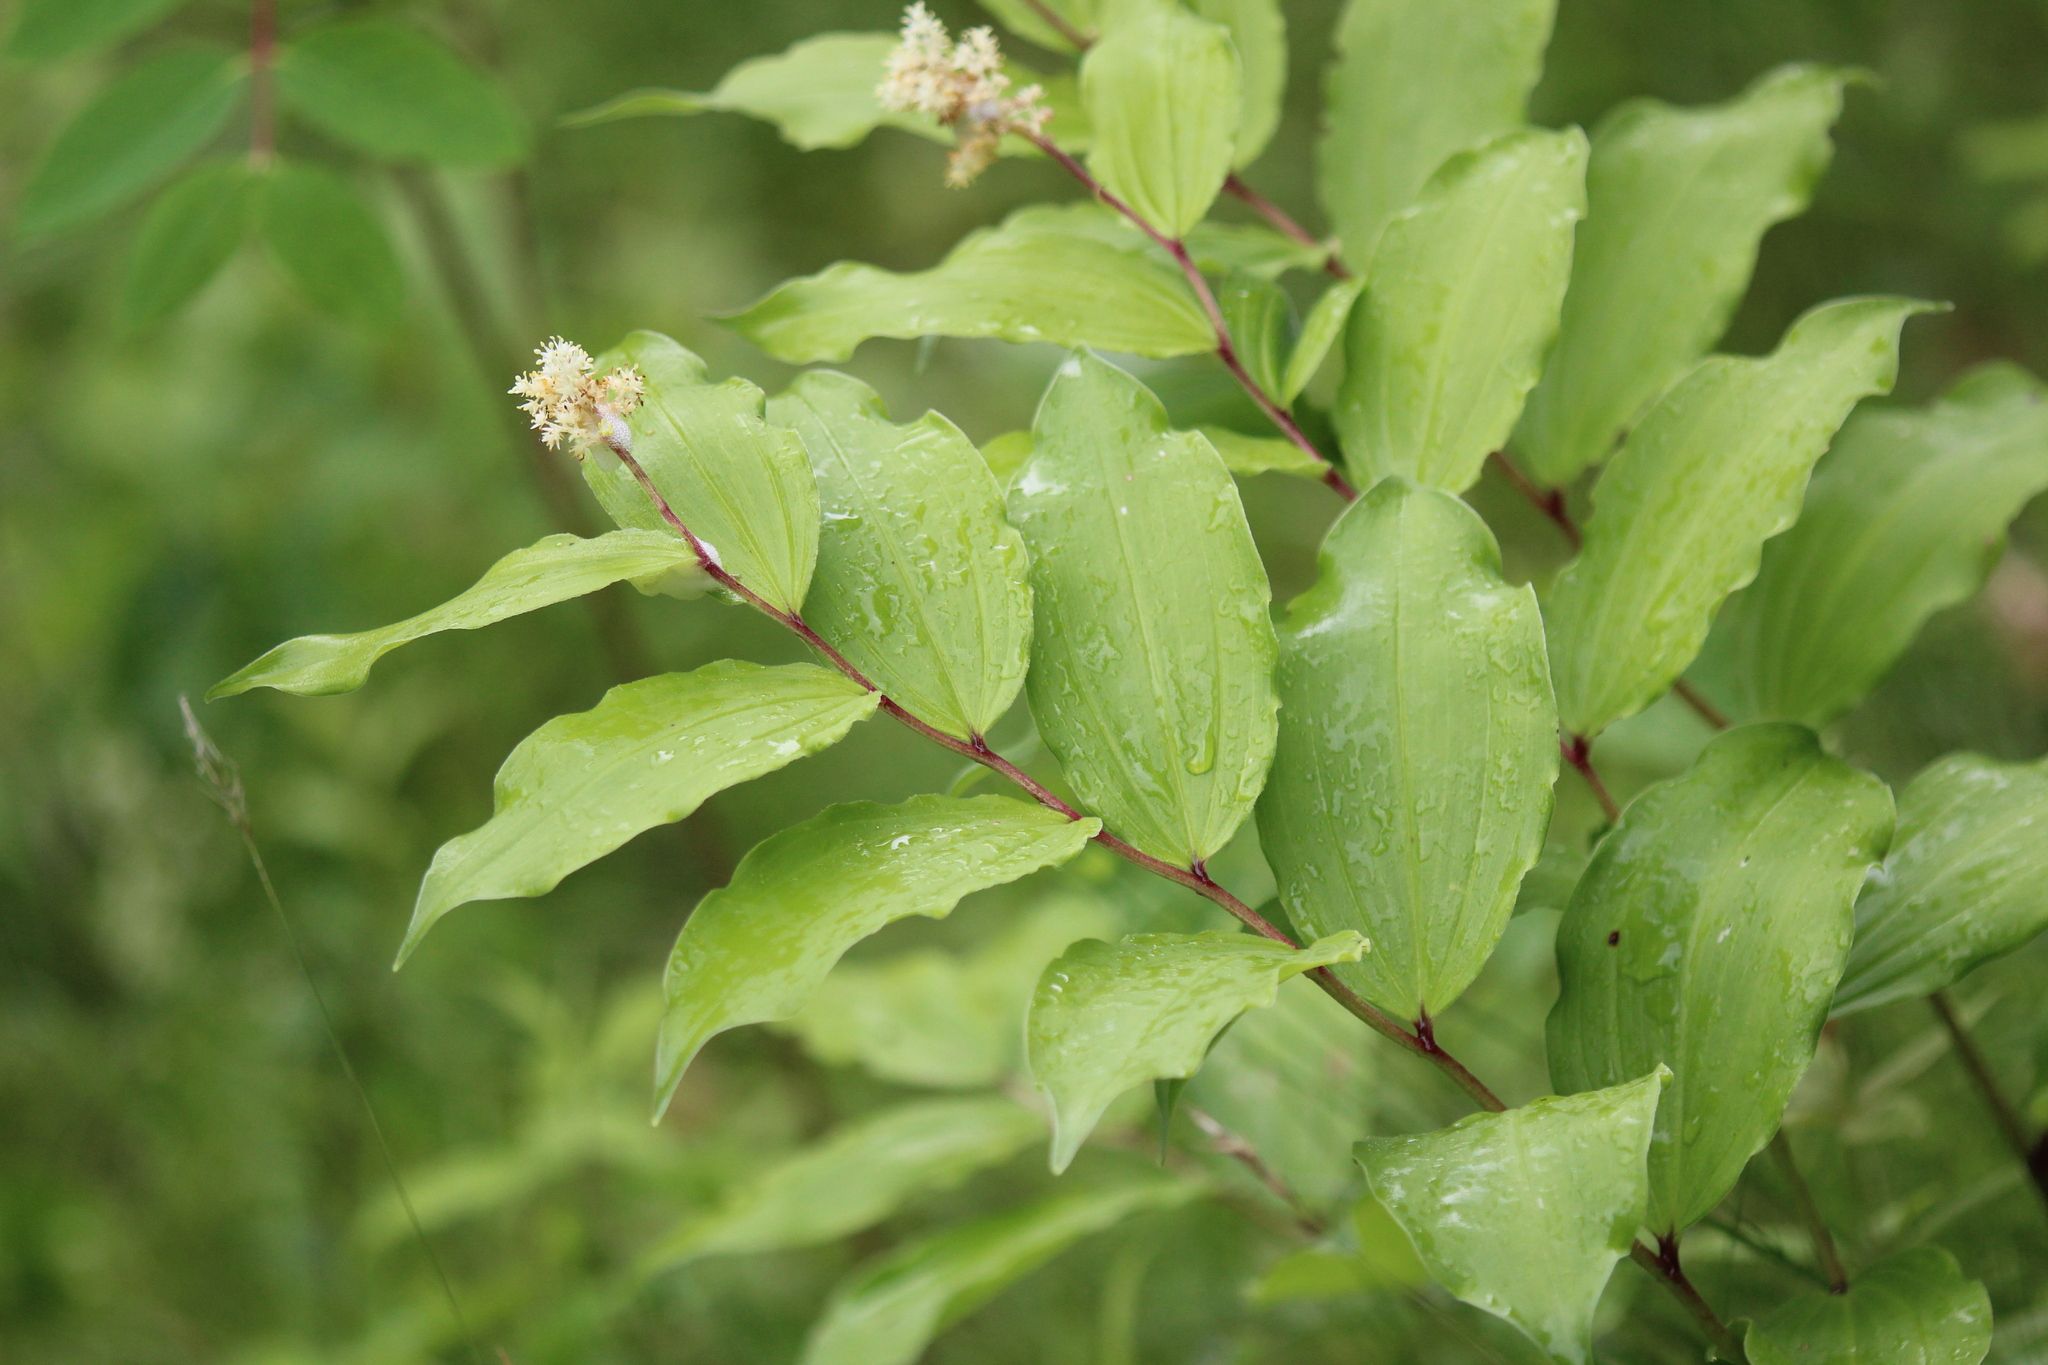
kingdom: Plantae
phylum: Tracheophyta
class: Liliopsida
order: Asparagales
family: Asparagaceae
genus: Maianthemum
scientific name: Maianthemum racemosum
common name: False spikenard
